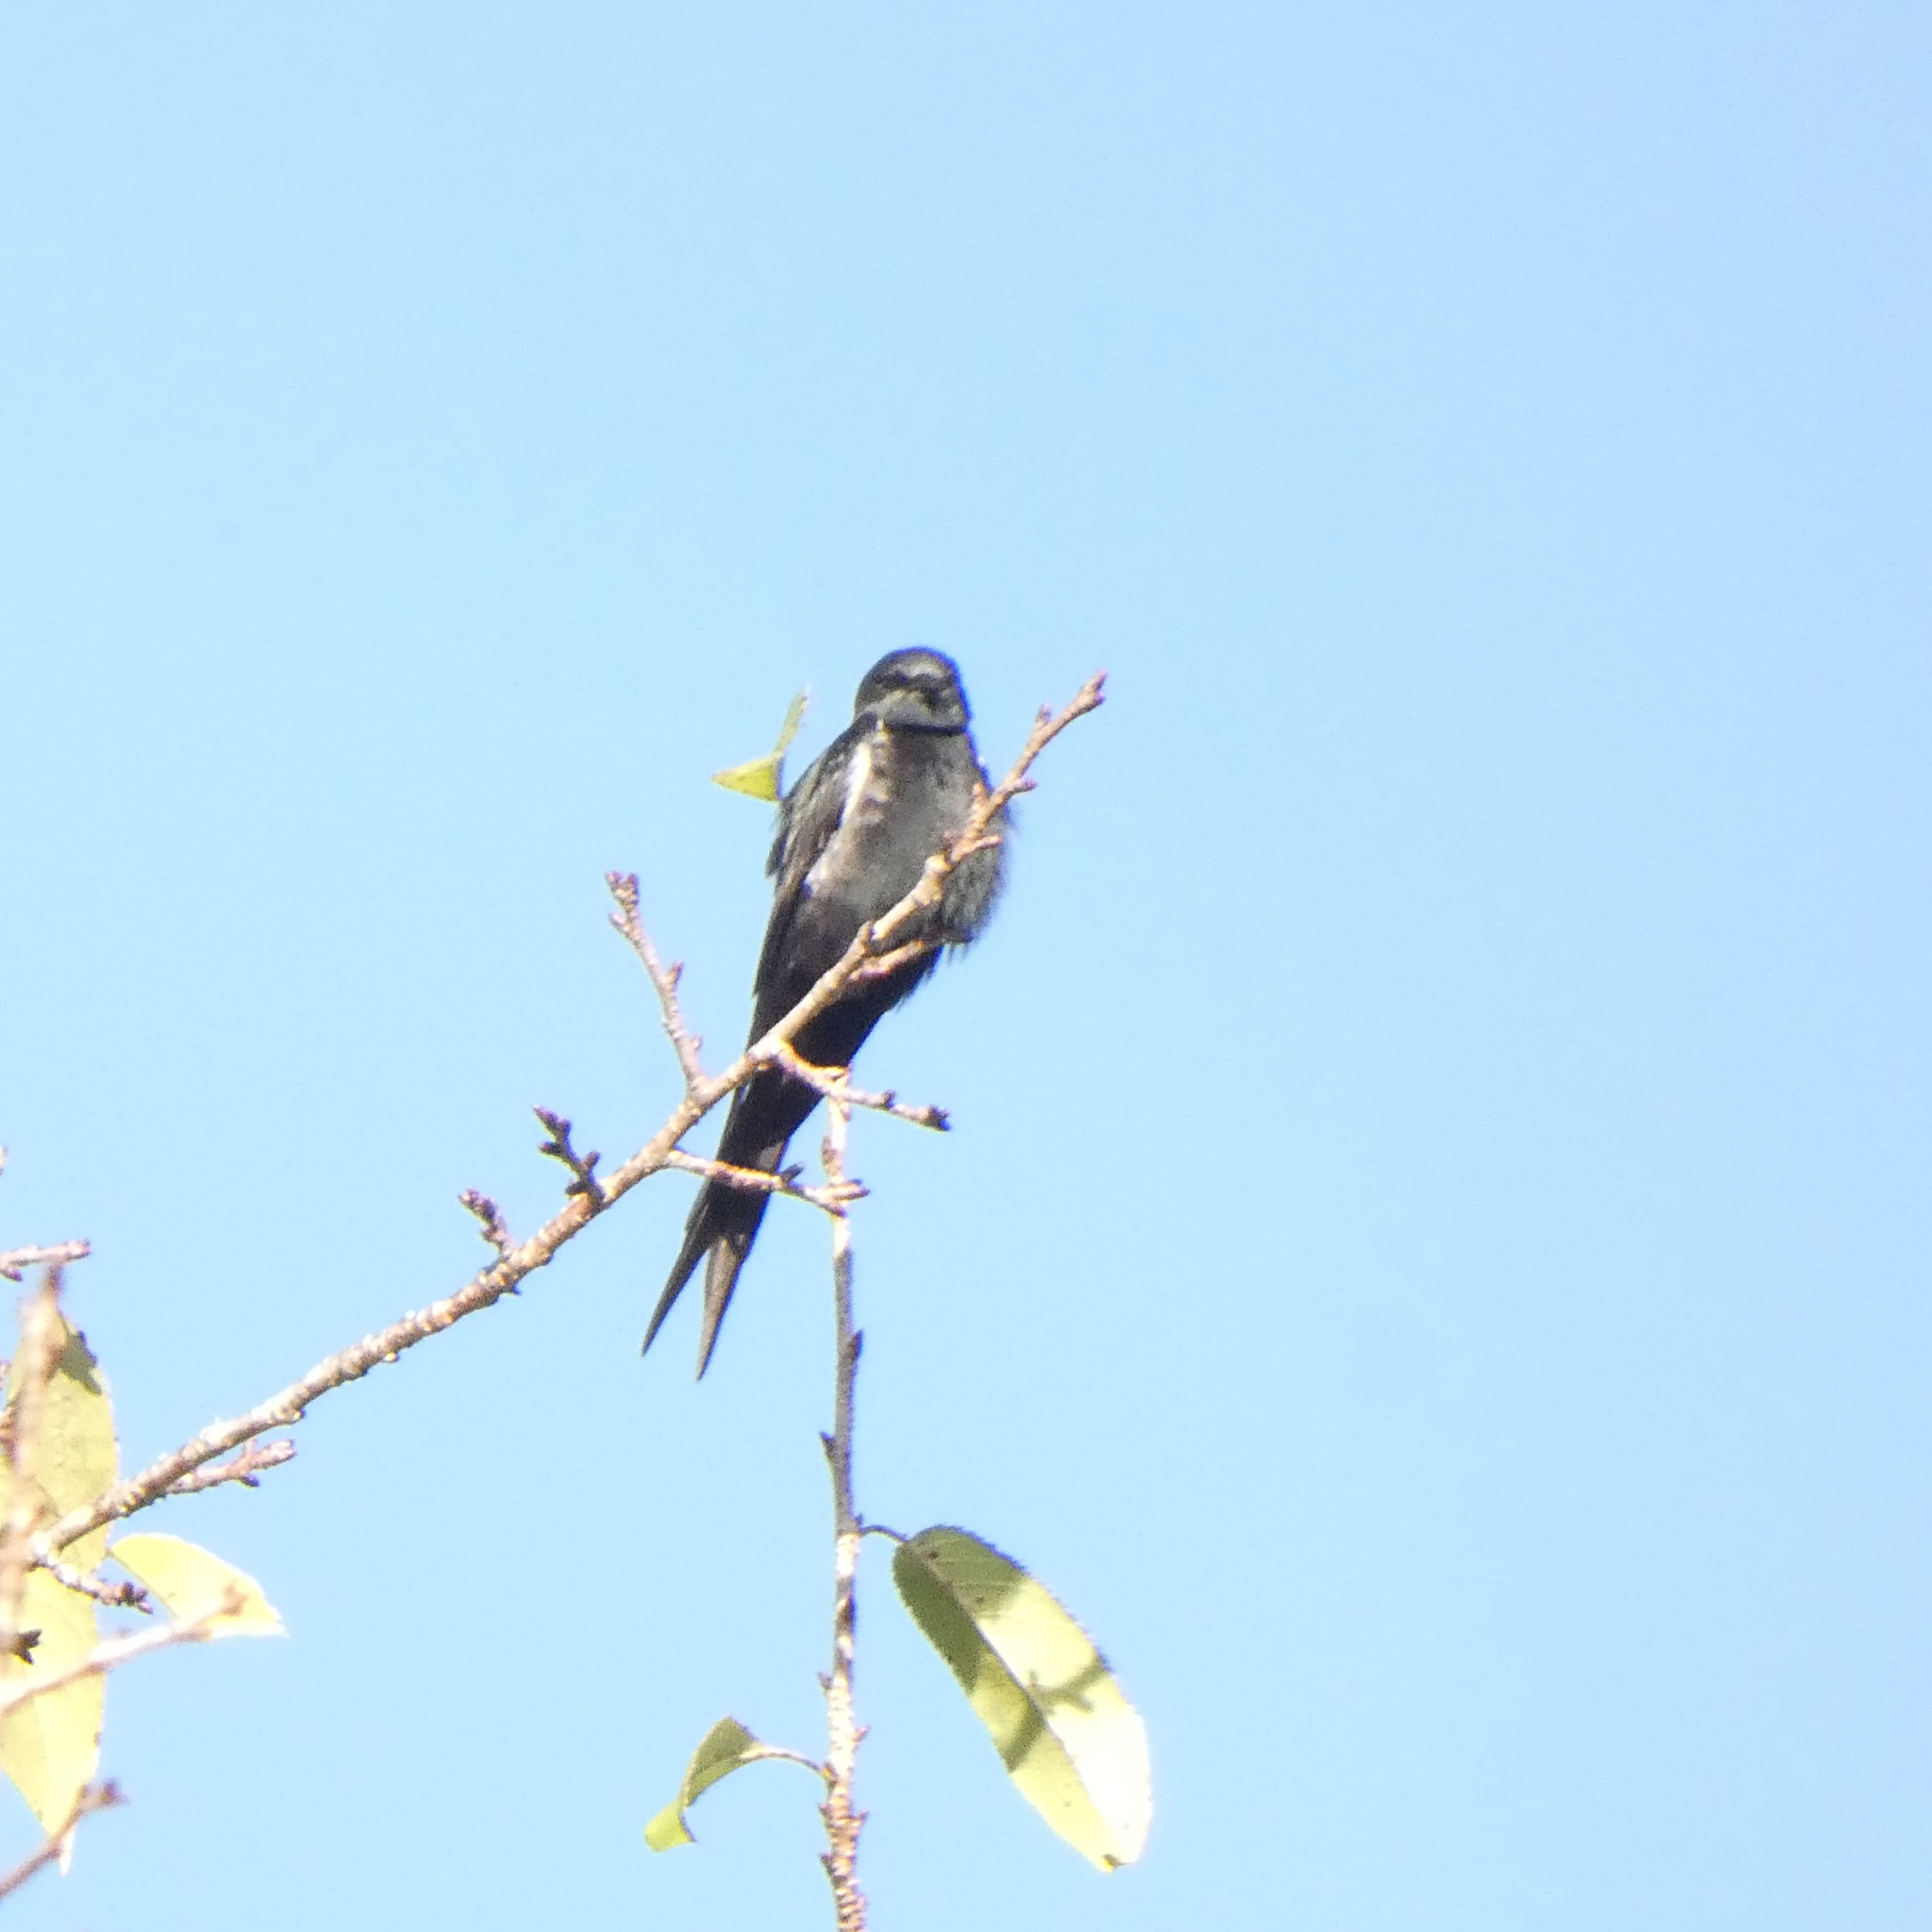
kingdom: Animalia
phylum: Chordata
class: Aves
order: Passeriformes
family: Hirundinidae
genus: Psalidoprocne
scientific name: Psalidoprocne pristoptera
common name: Black saw-wing
